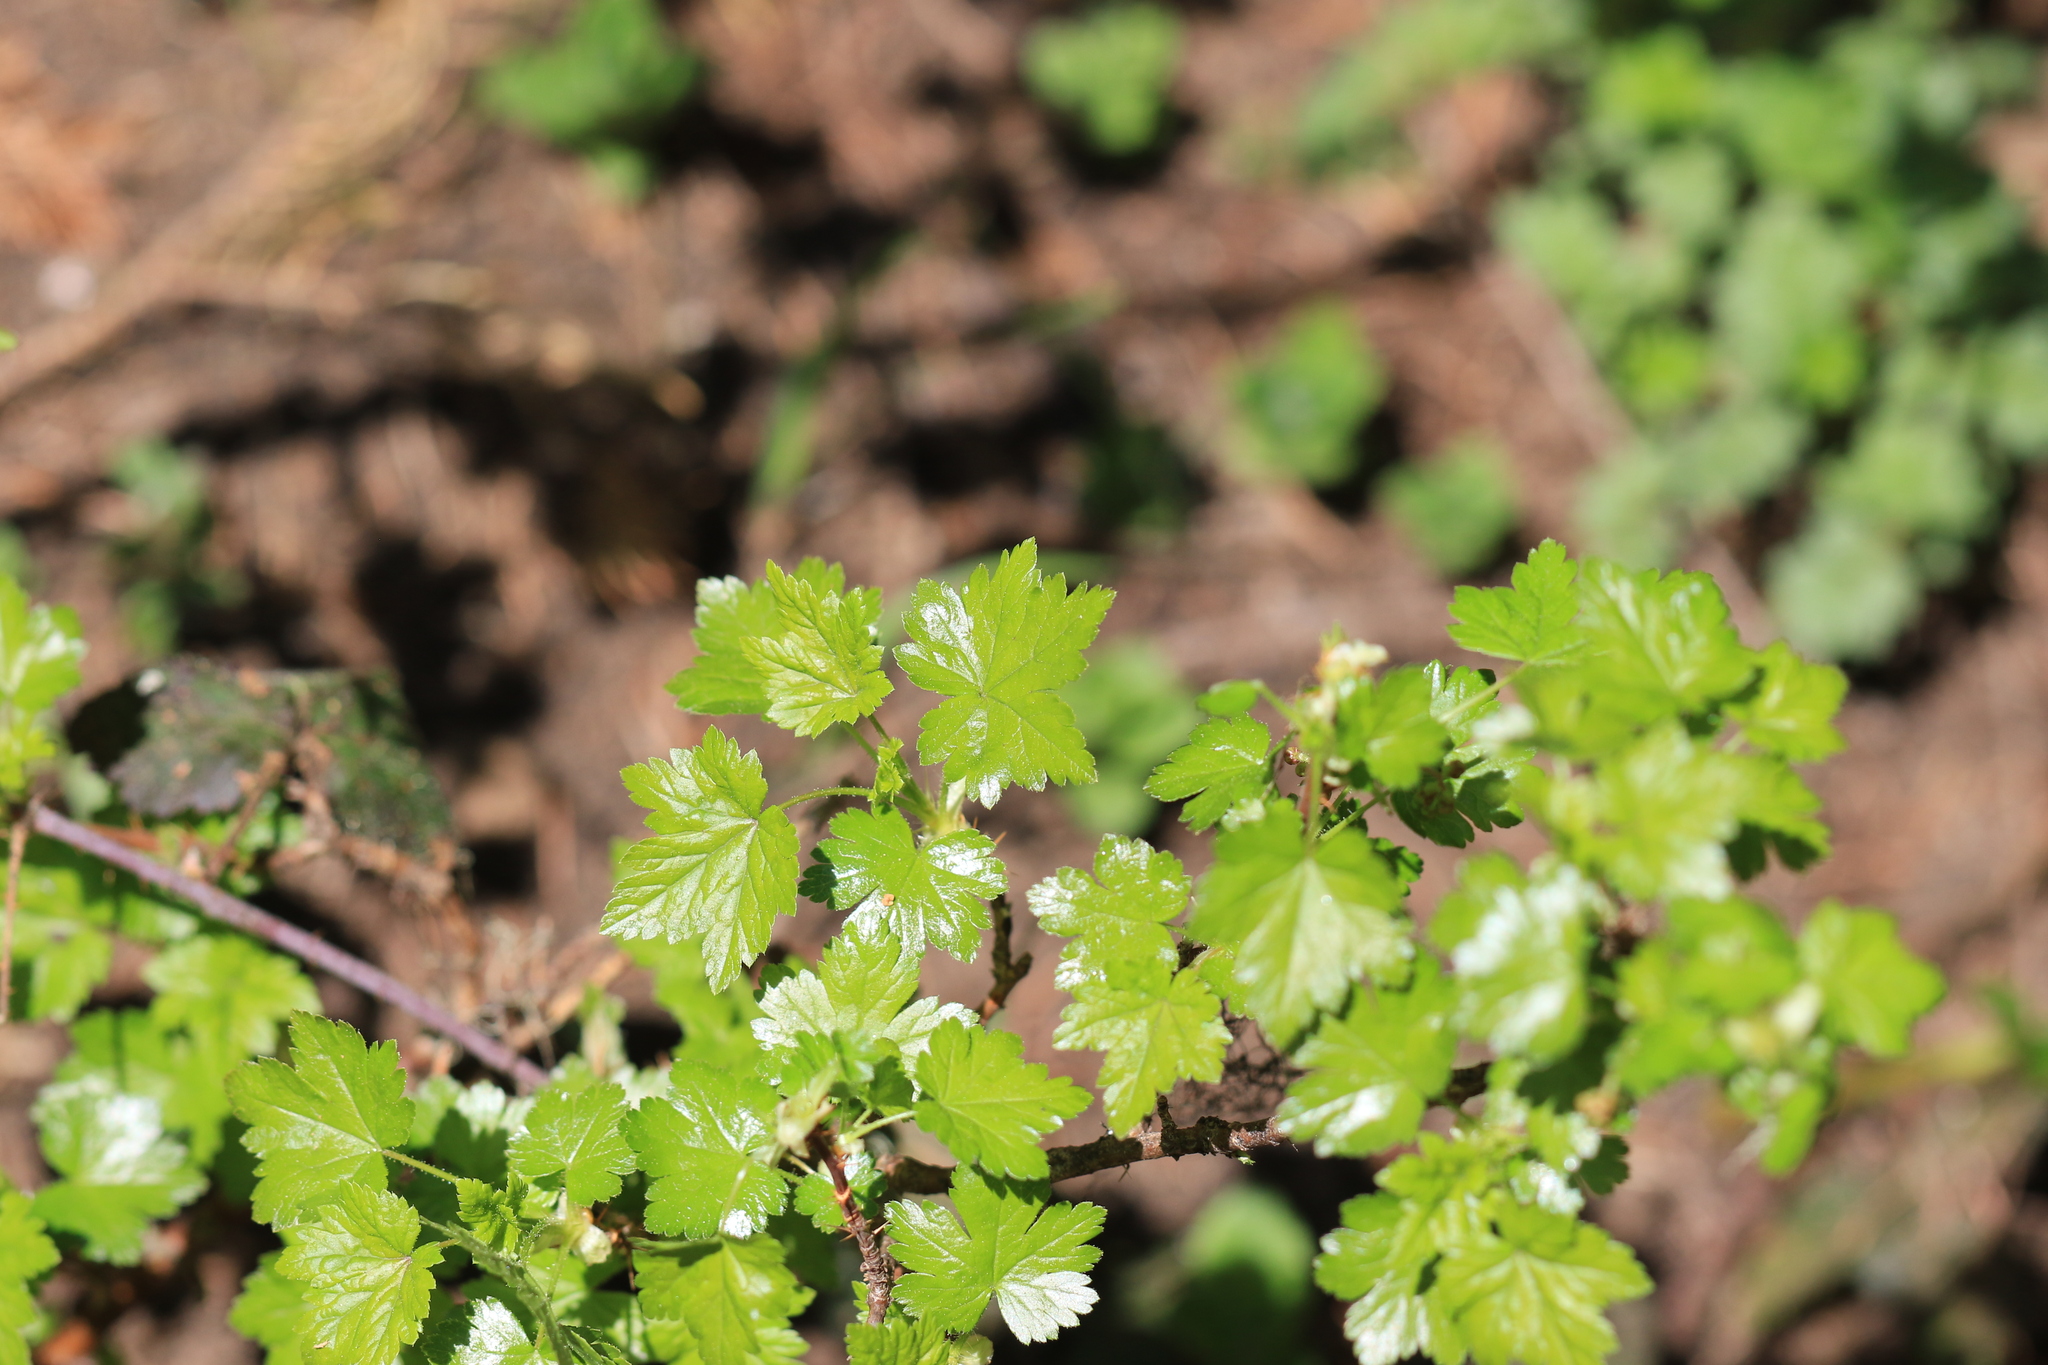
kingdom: Plantae
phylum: Tracheophyta
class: Magnoliopsida
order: Saxifragales
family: Grossulariaceae
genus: Ribes
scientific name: Ribes lacustre
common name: Black gooseberry
